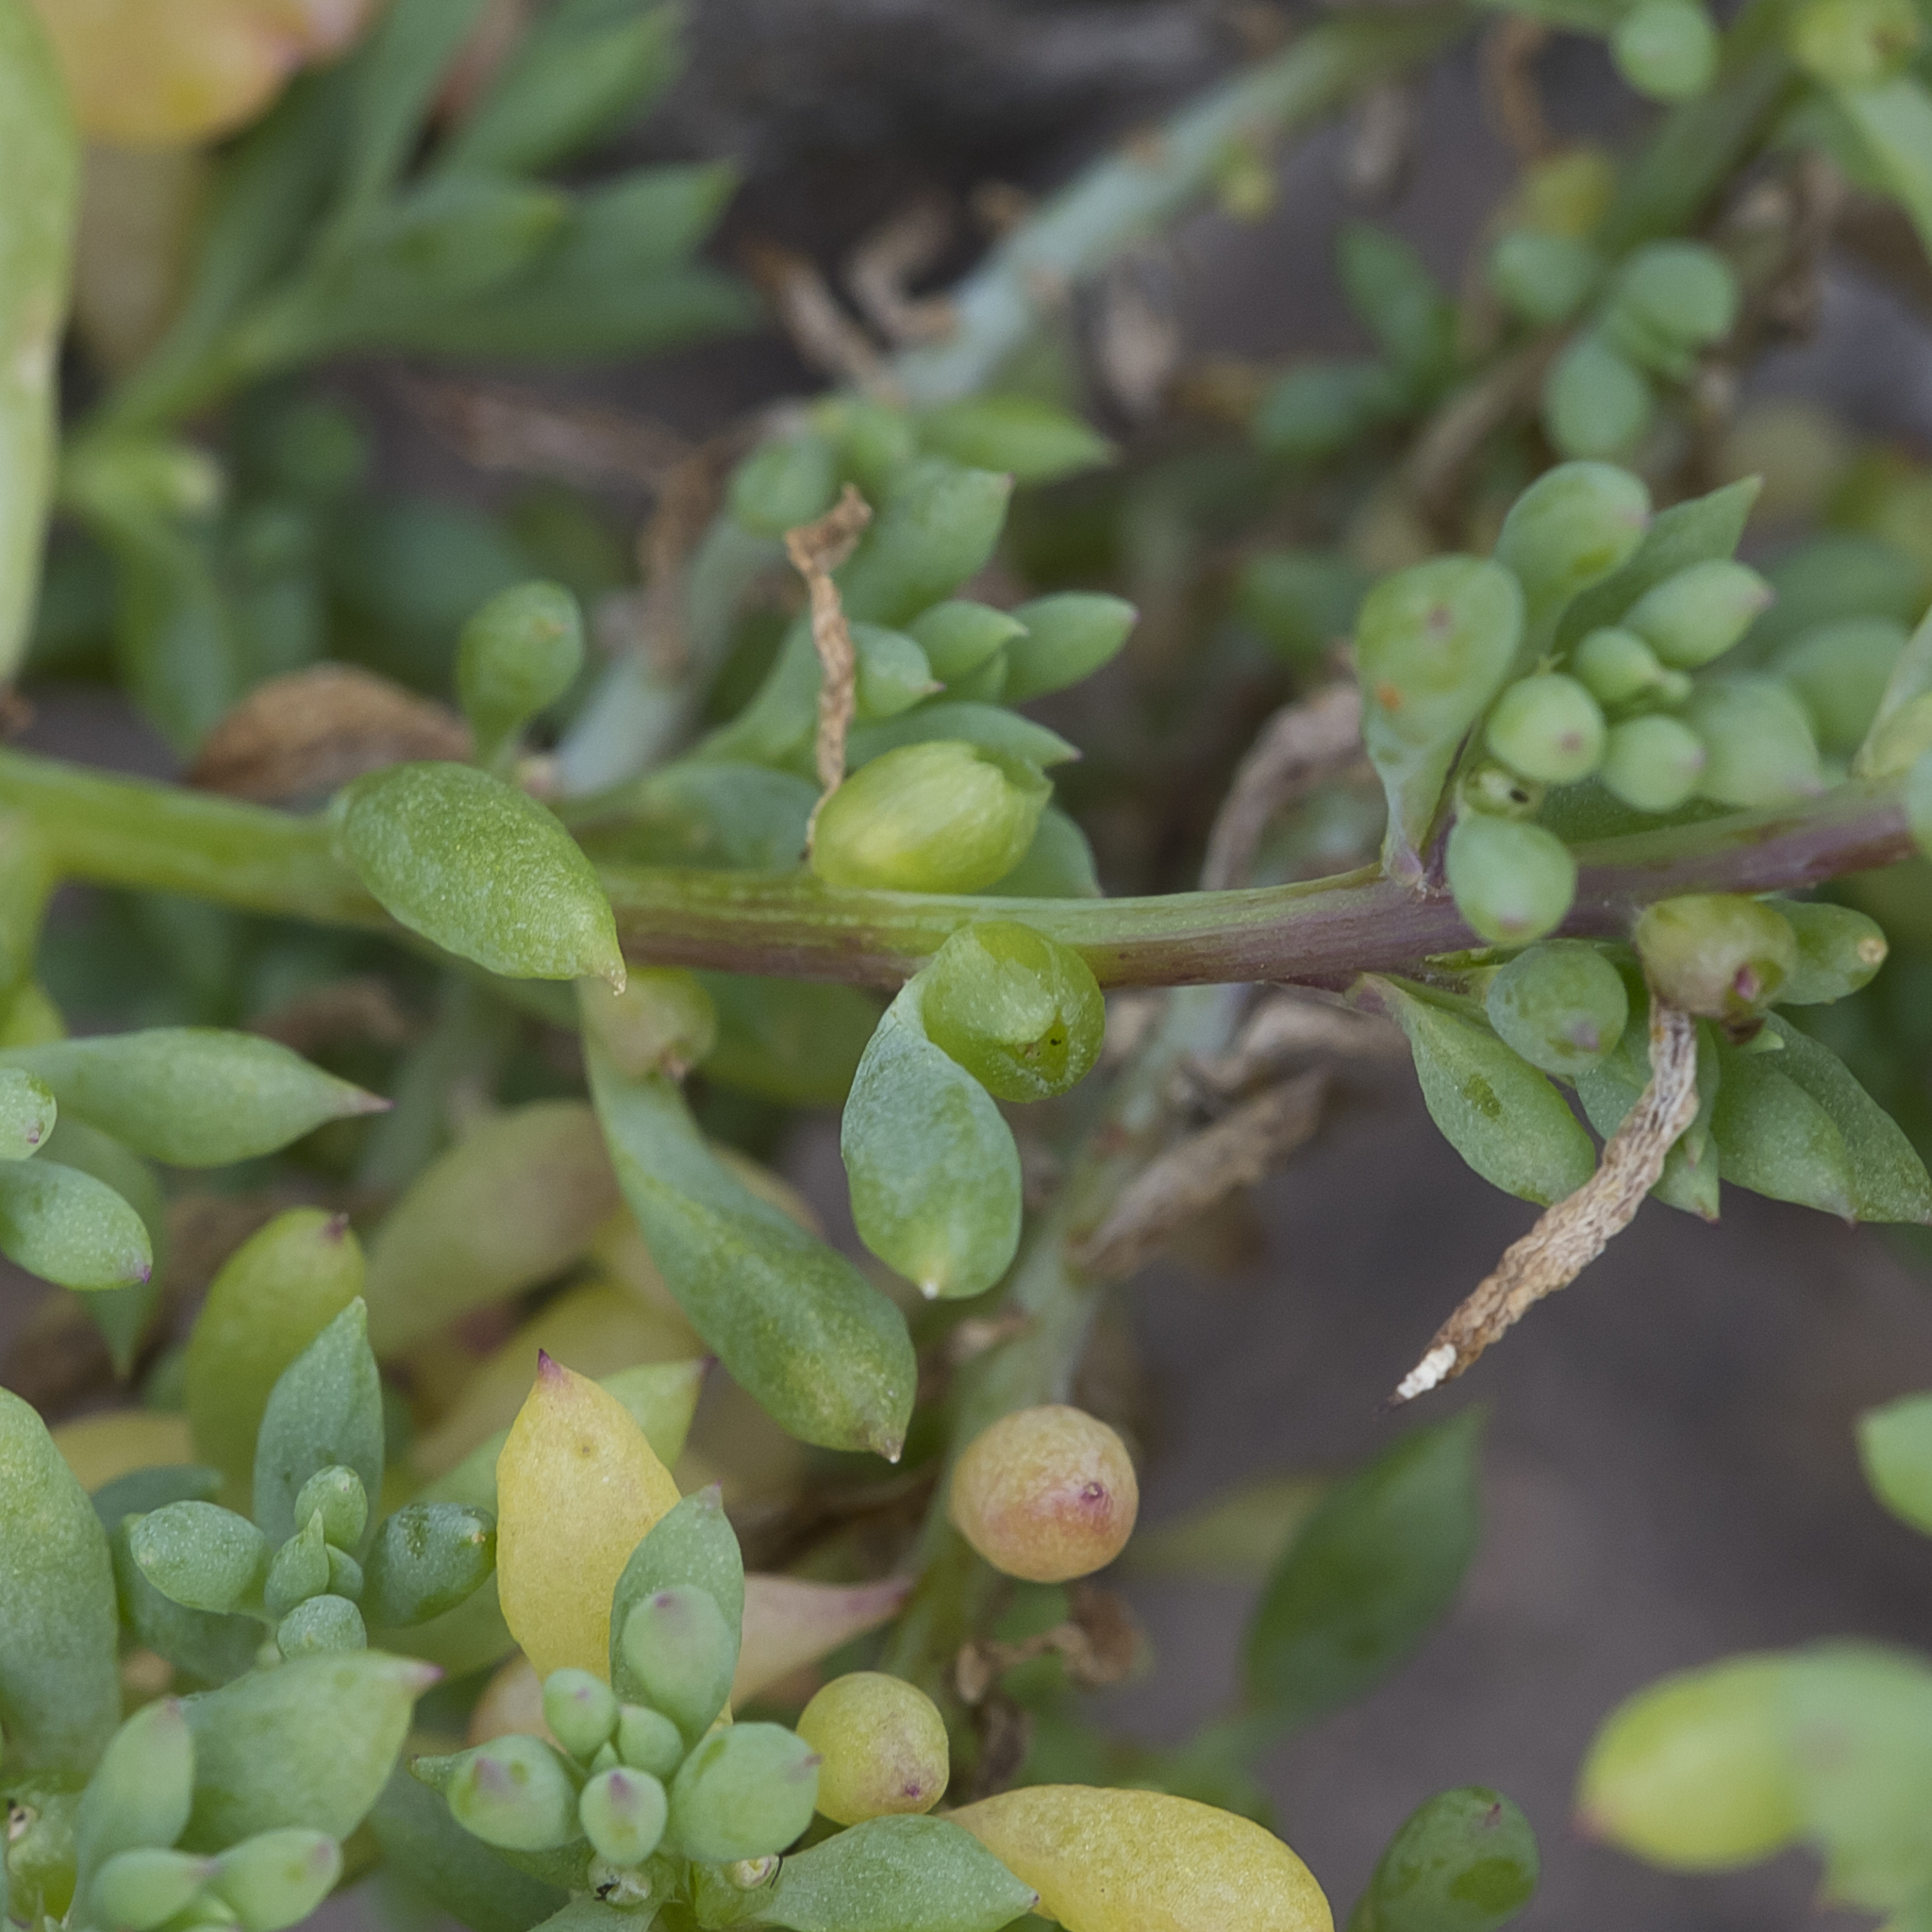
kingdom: Plantae
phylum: Tracheophyta
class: Magnoliopsida
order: Caryophyllales
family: Amaranthaceae
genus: Threlkeldia
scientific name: Threlkeldia diffusa
